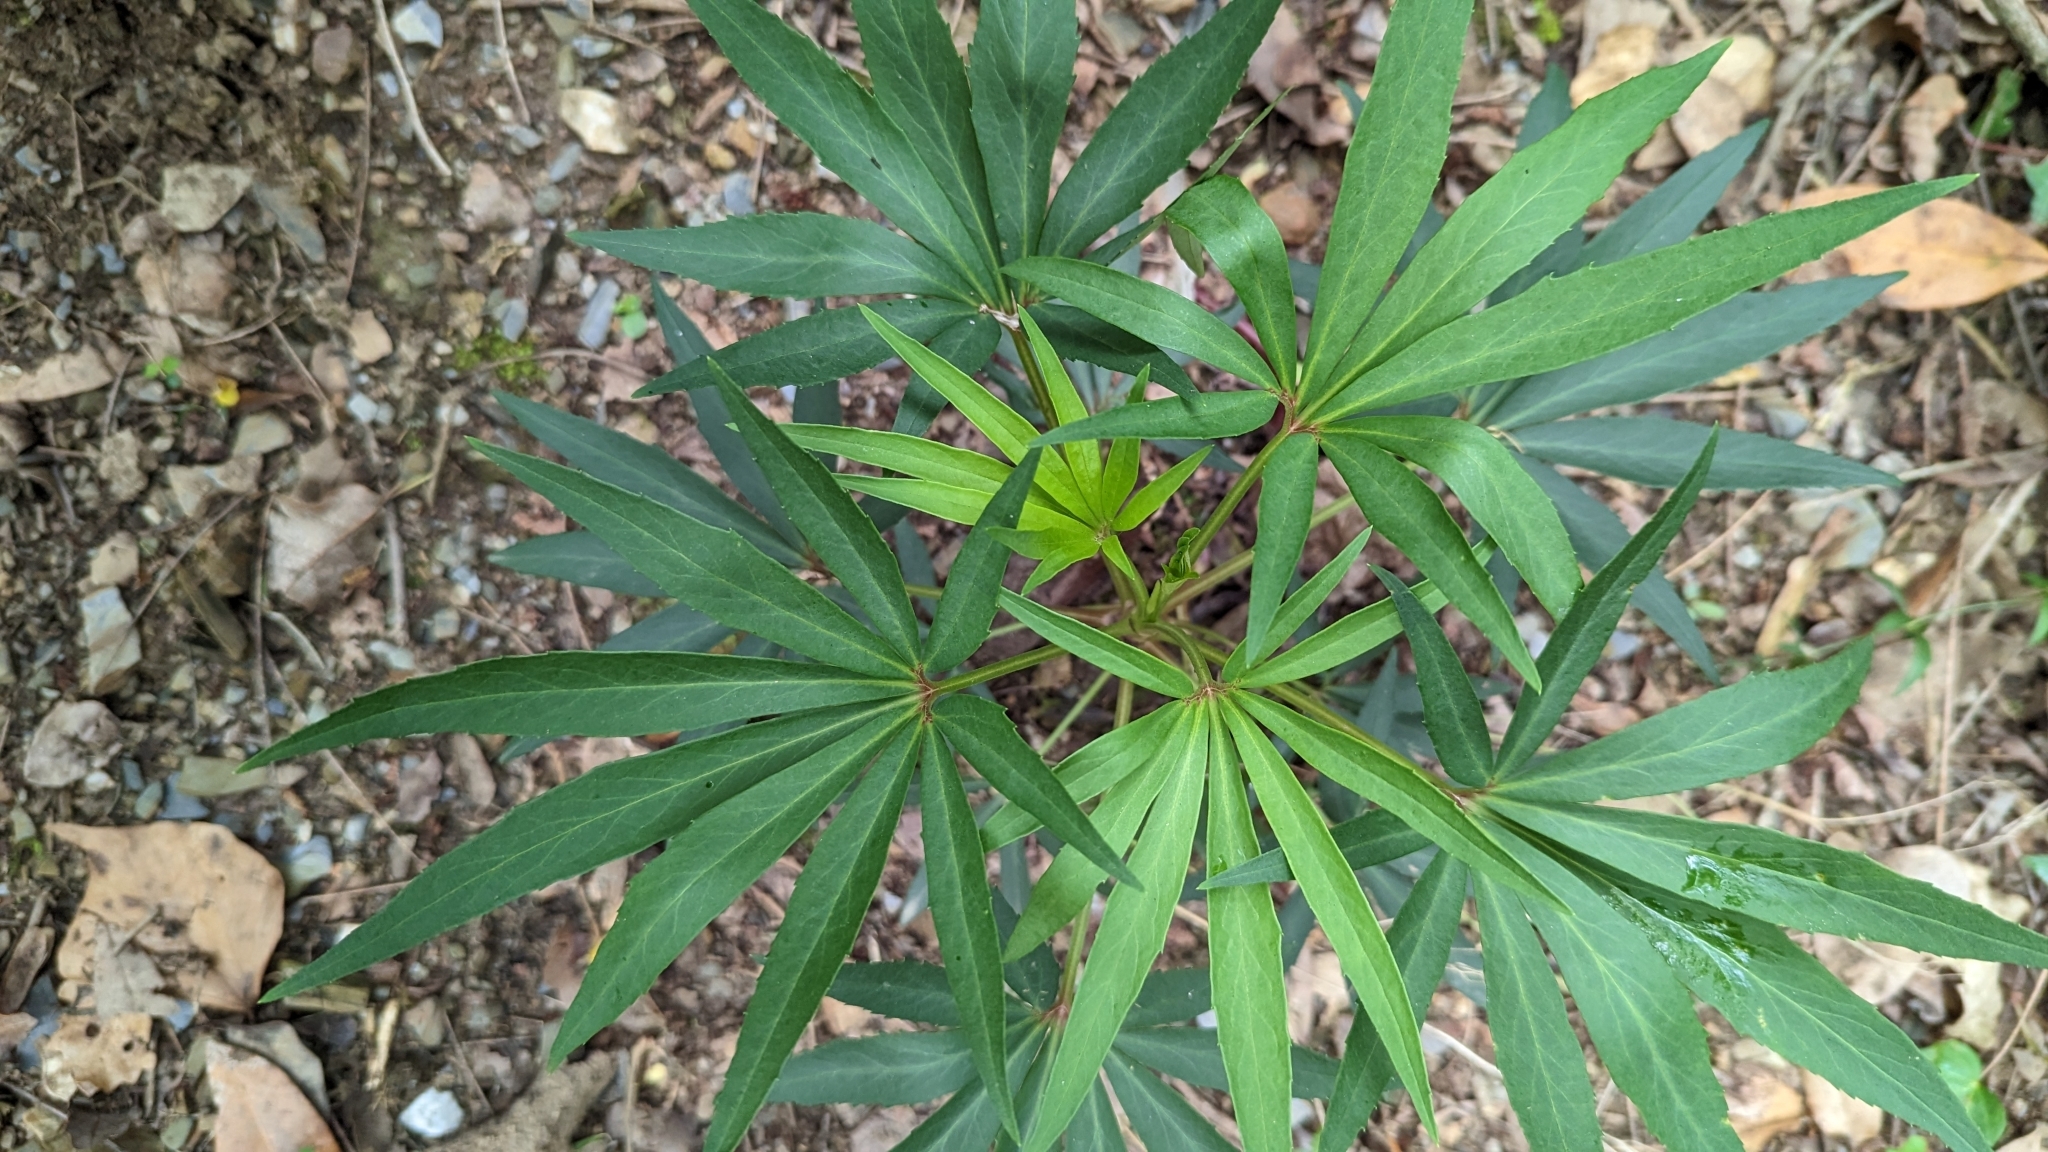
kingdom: Plantae
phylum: Tracheophyta
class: Magnoliopsida
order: Ranunculales
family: Ranunculaceae
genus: Helleborus
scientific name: Helleborus foetidus
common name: Stinking hellebore
